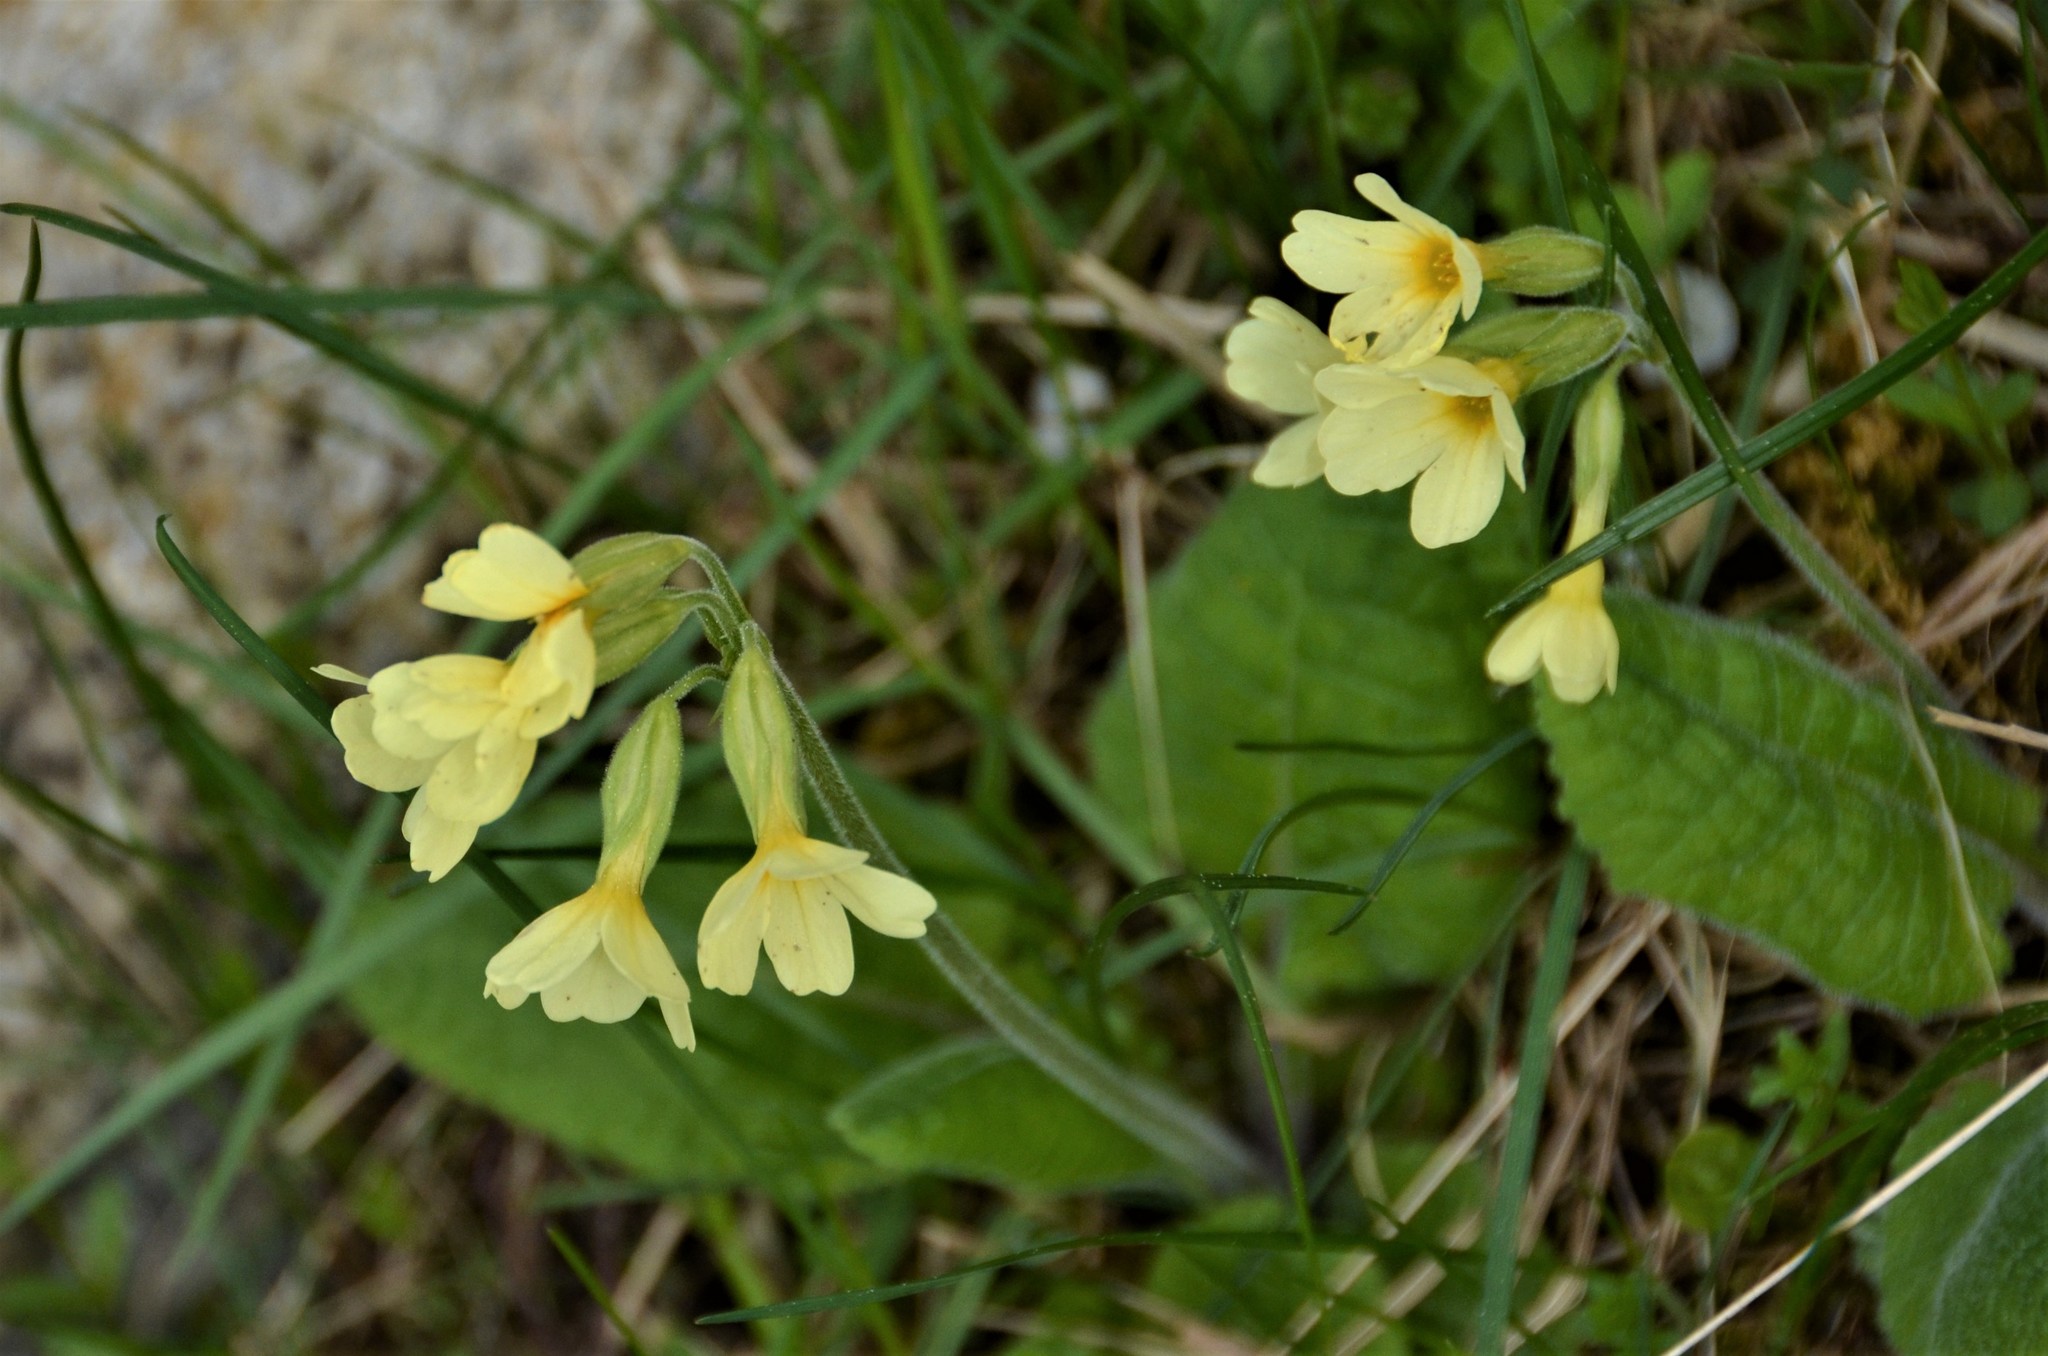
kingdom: Plantae
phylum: Tracheophyta
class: Magnoliopsida
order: Ericales
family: Primulaceae
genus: Primula
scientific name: Primula elatior
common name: Oxlip
